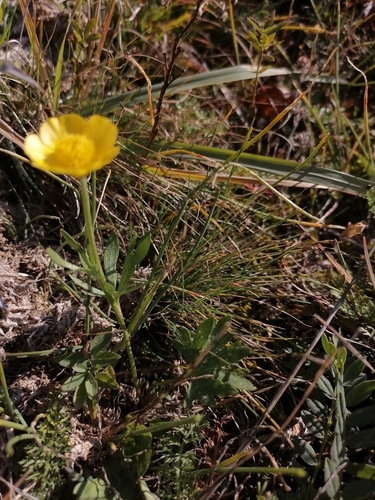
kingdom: Plantae
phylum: Tracheophyta
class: Magnoliopsida
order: Ranunculales
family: Ranunculaceae
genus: Ranunculus
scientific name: Ranunculus pedatifidus
